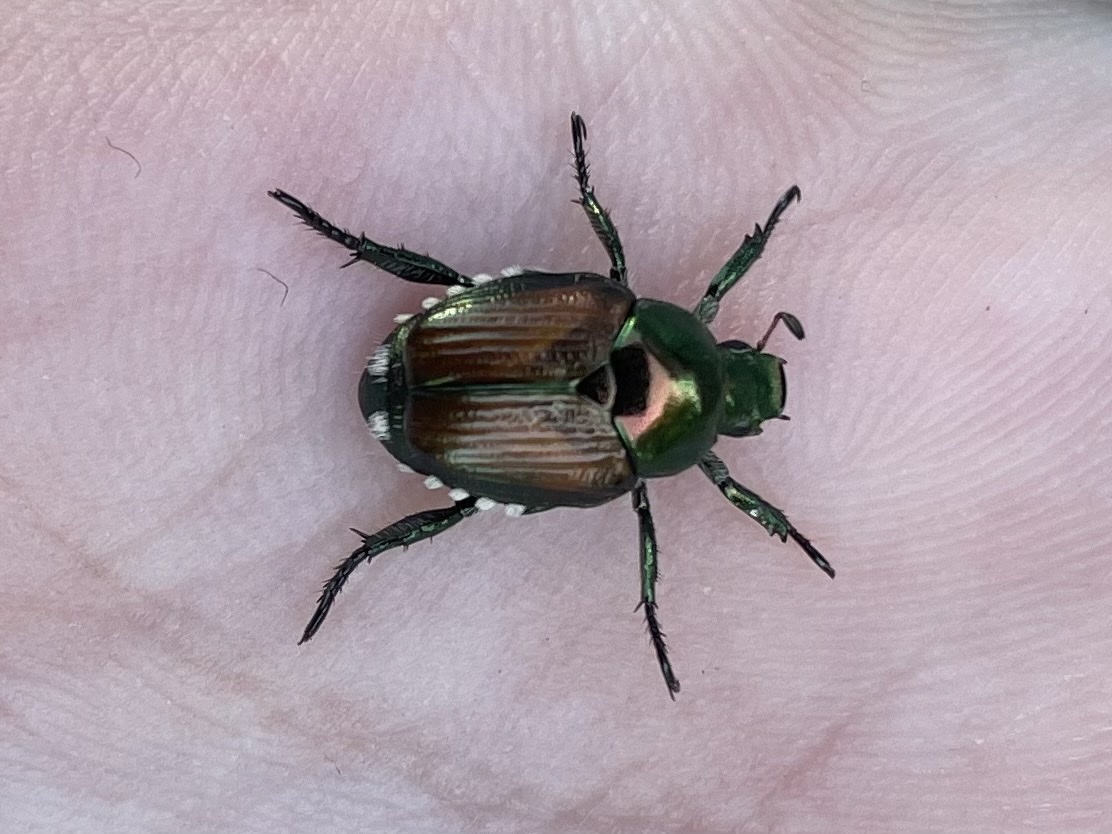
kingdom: Animalia
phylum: Arthropoda
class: Insecta
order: Coleoptera
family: Scarabaeidae
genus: Popillia
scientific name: Popillia japonica
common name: Japanese beetle
